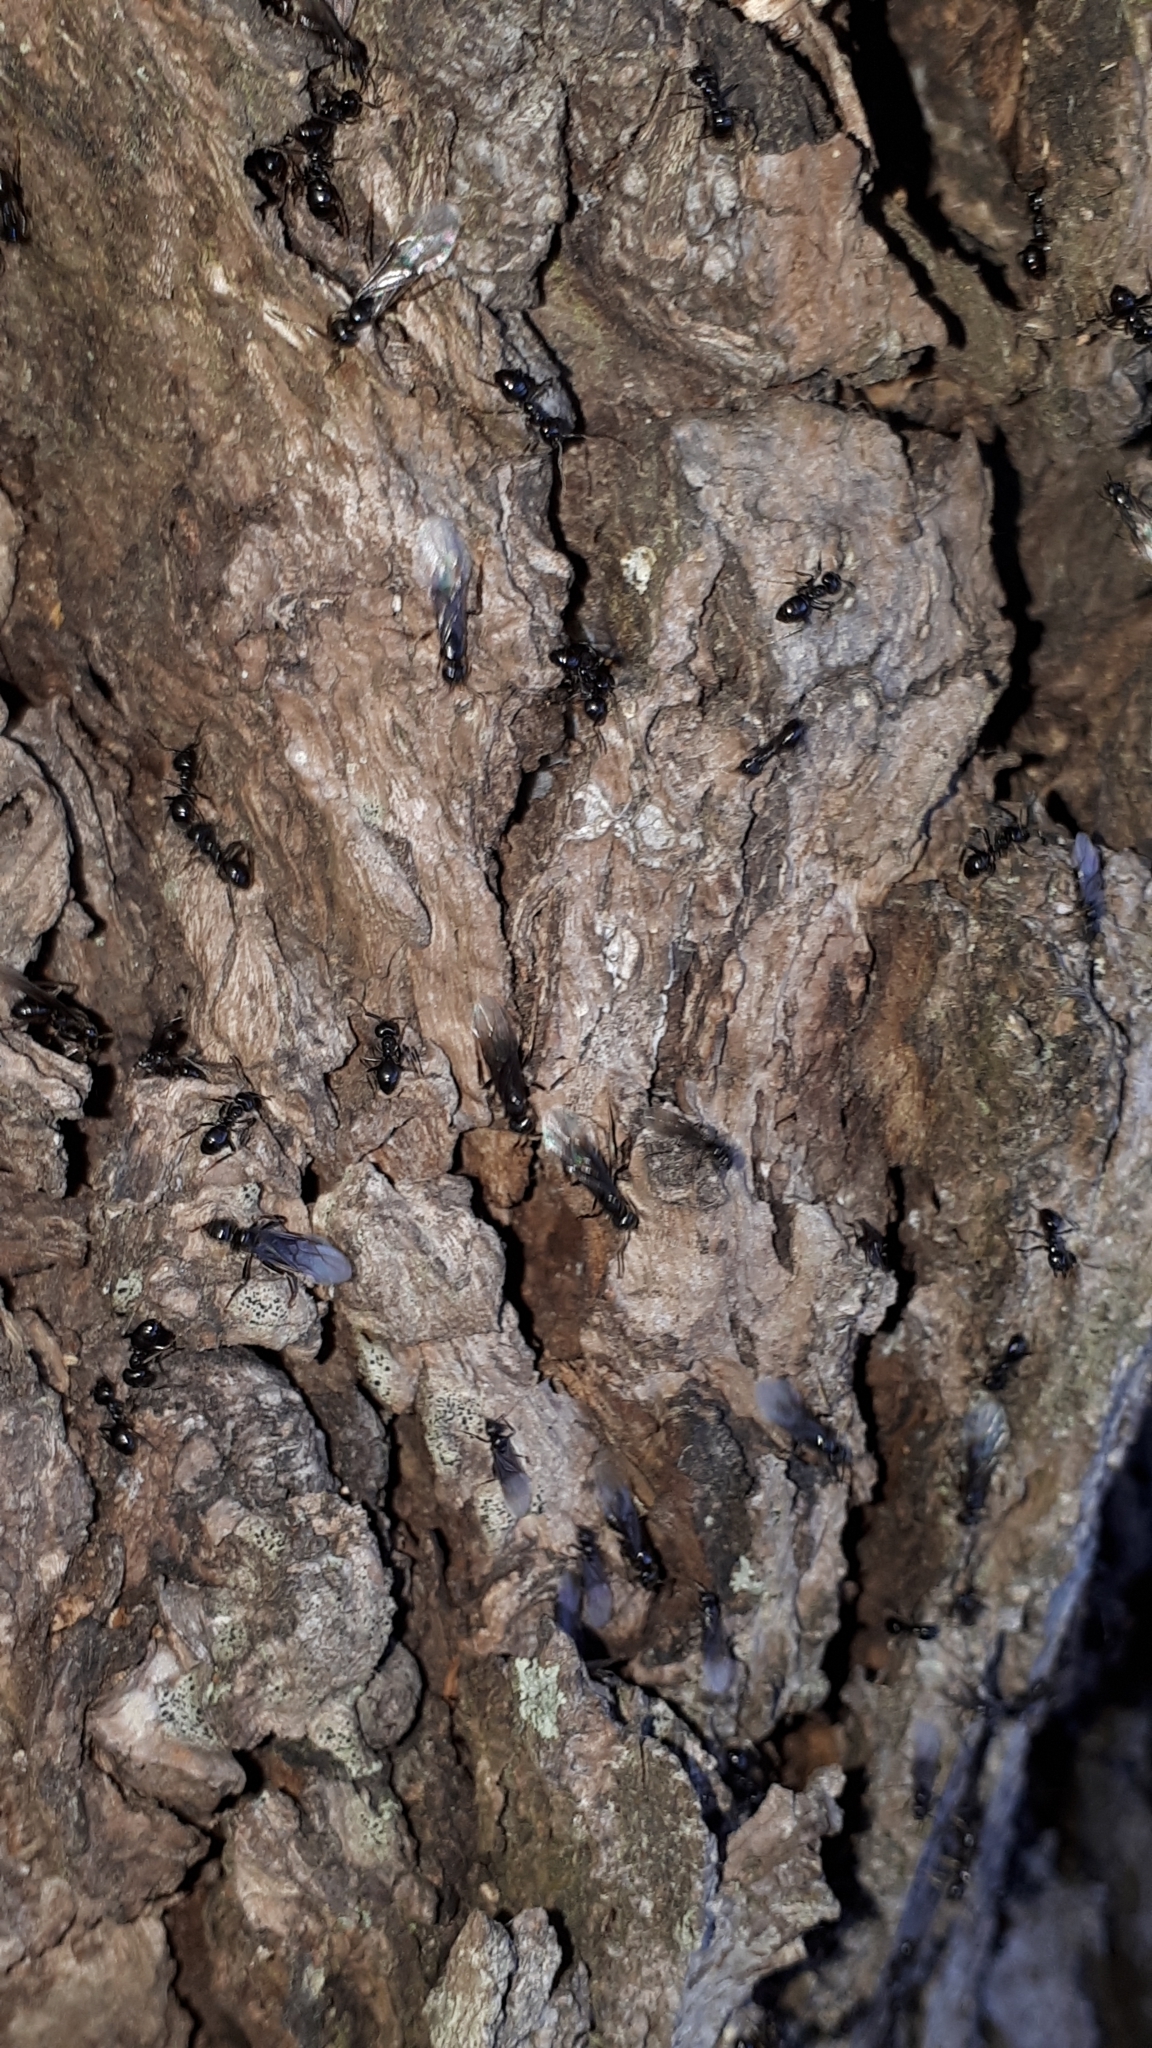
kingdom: Animalia
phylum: Arthropoda
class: Insecta
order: Hymenoptera
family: Formicidae
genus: Lasius
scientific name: Lasius fuliginosus
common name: Jet ant
